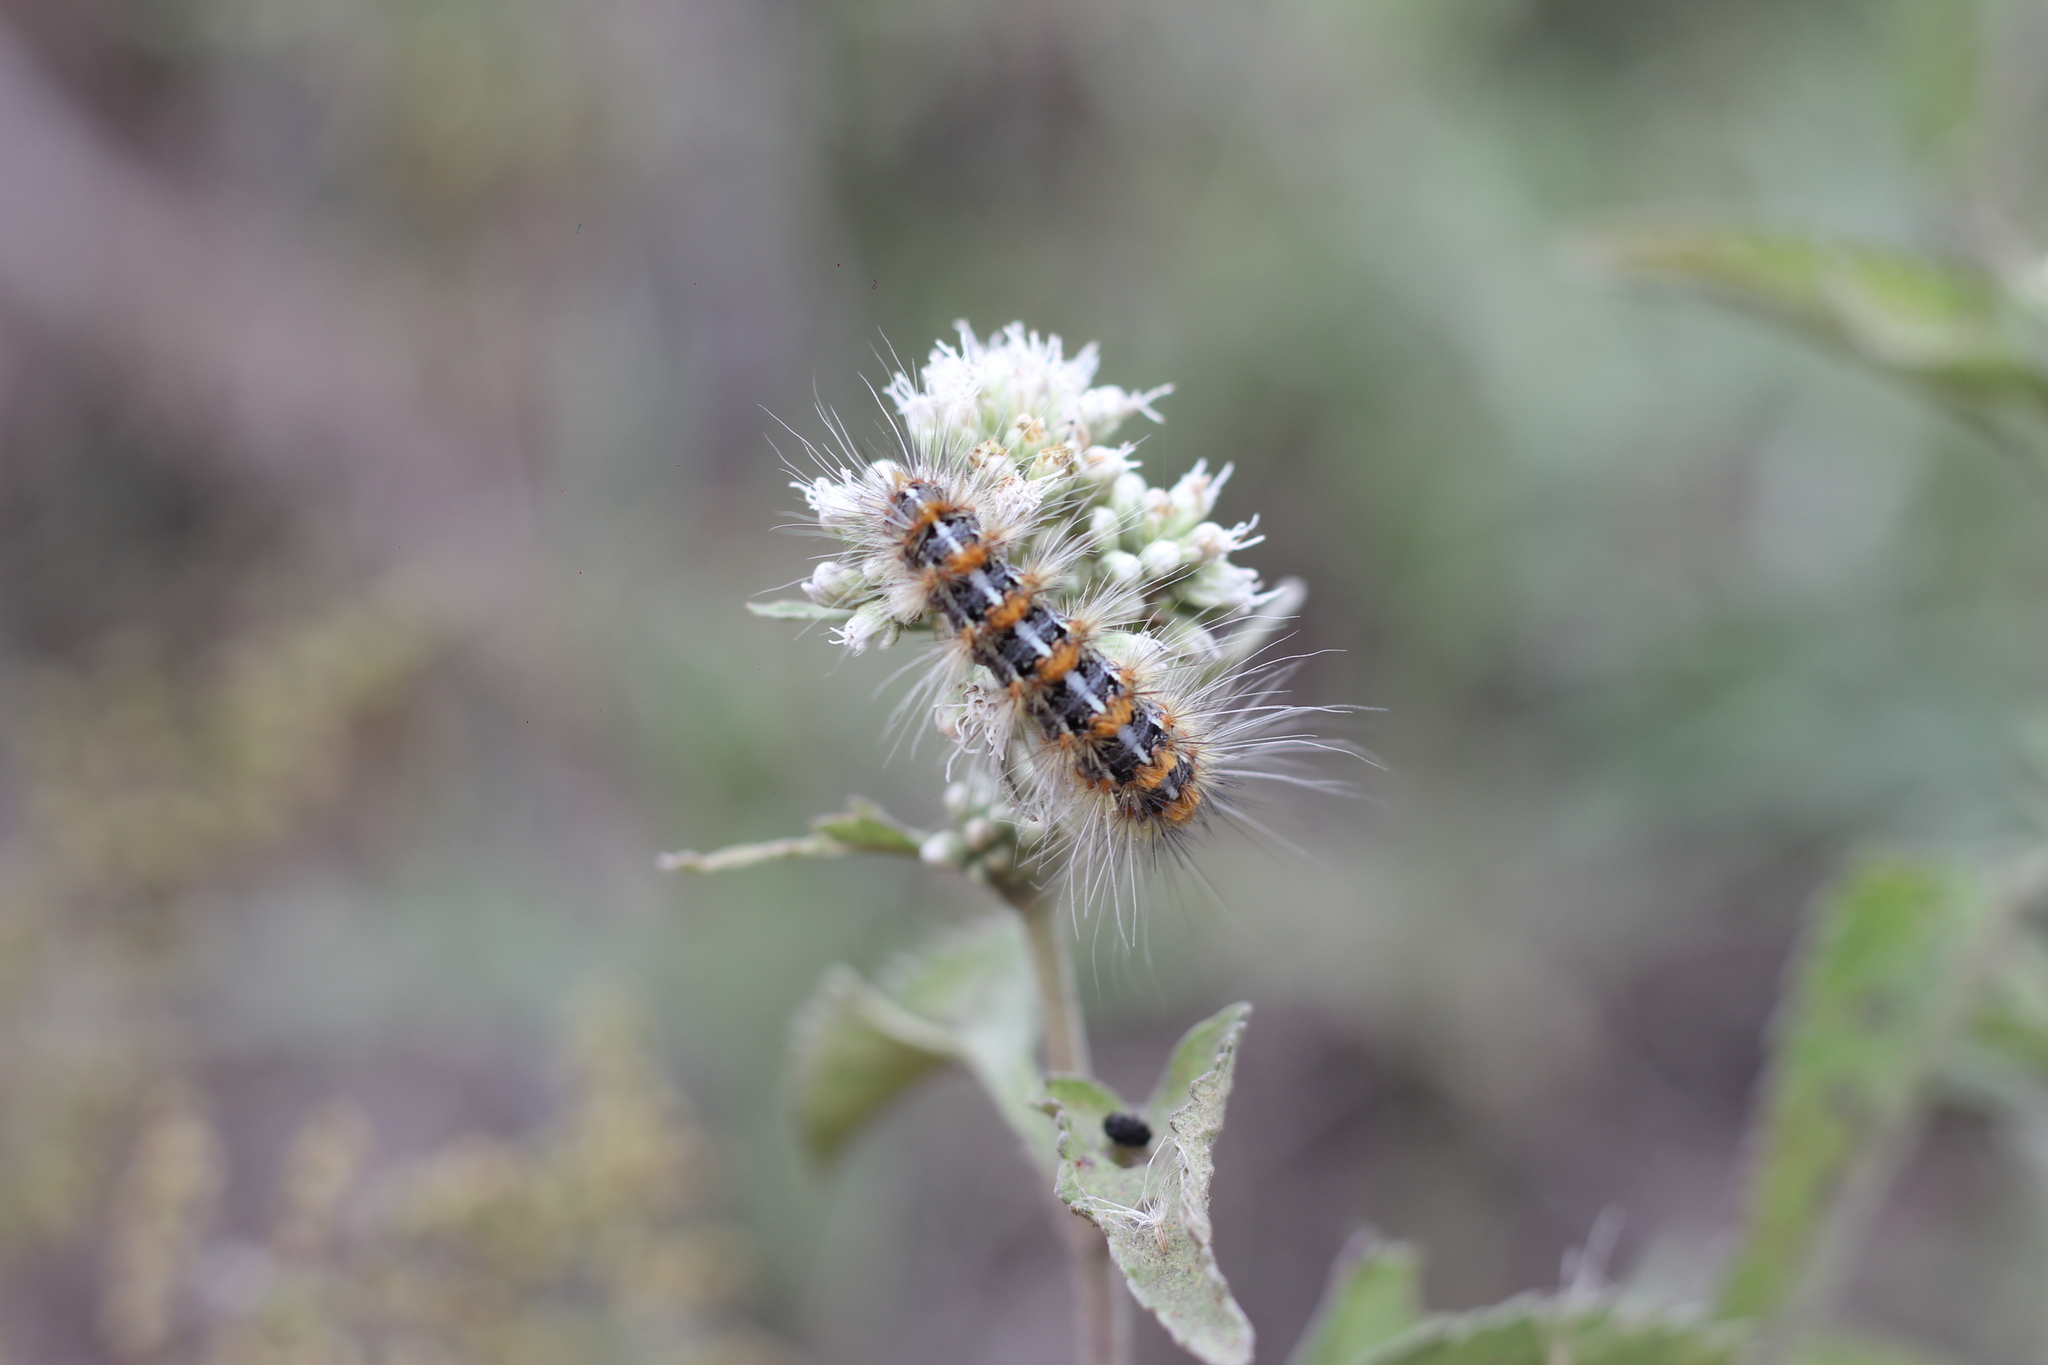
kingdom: Animalia
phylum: Arthropoda
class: Insecta
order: Lepidoptera
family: Erebidae
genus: Paracles
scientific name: Paracles deserticola
